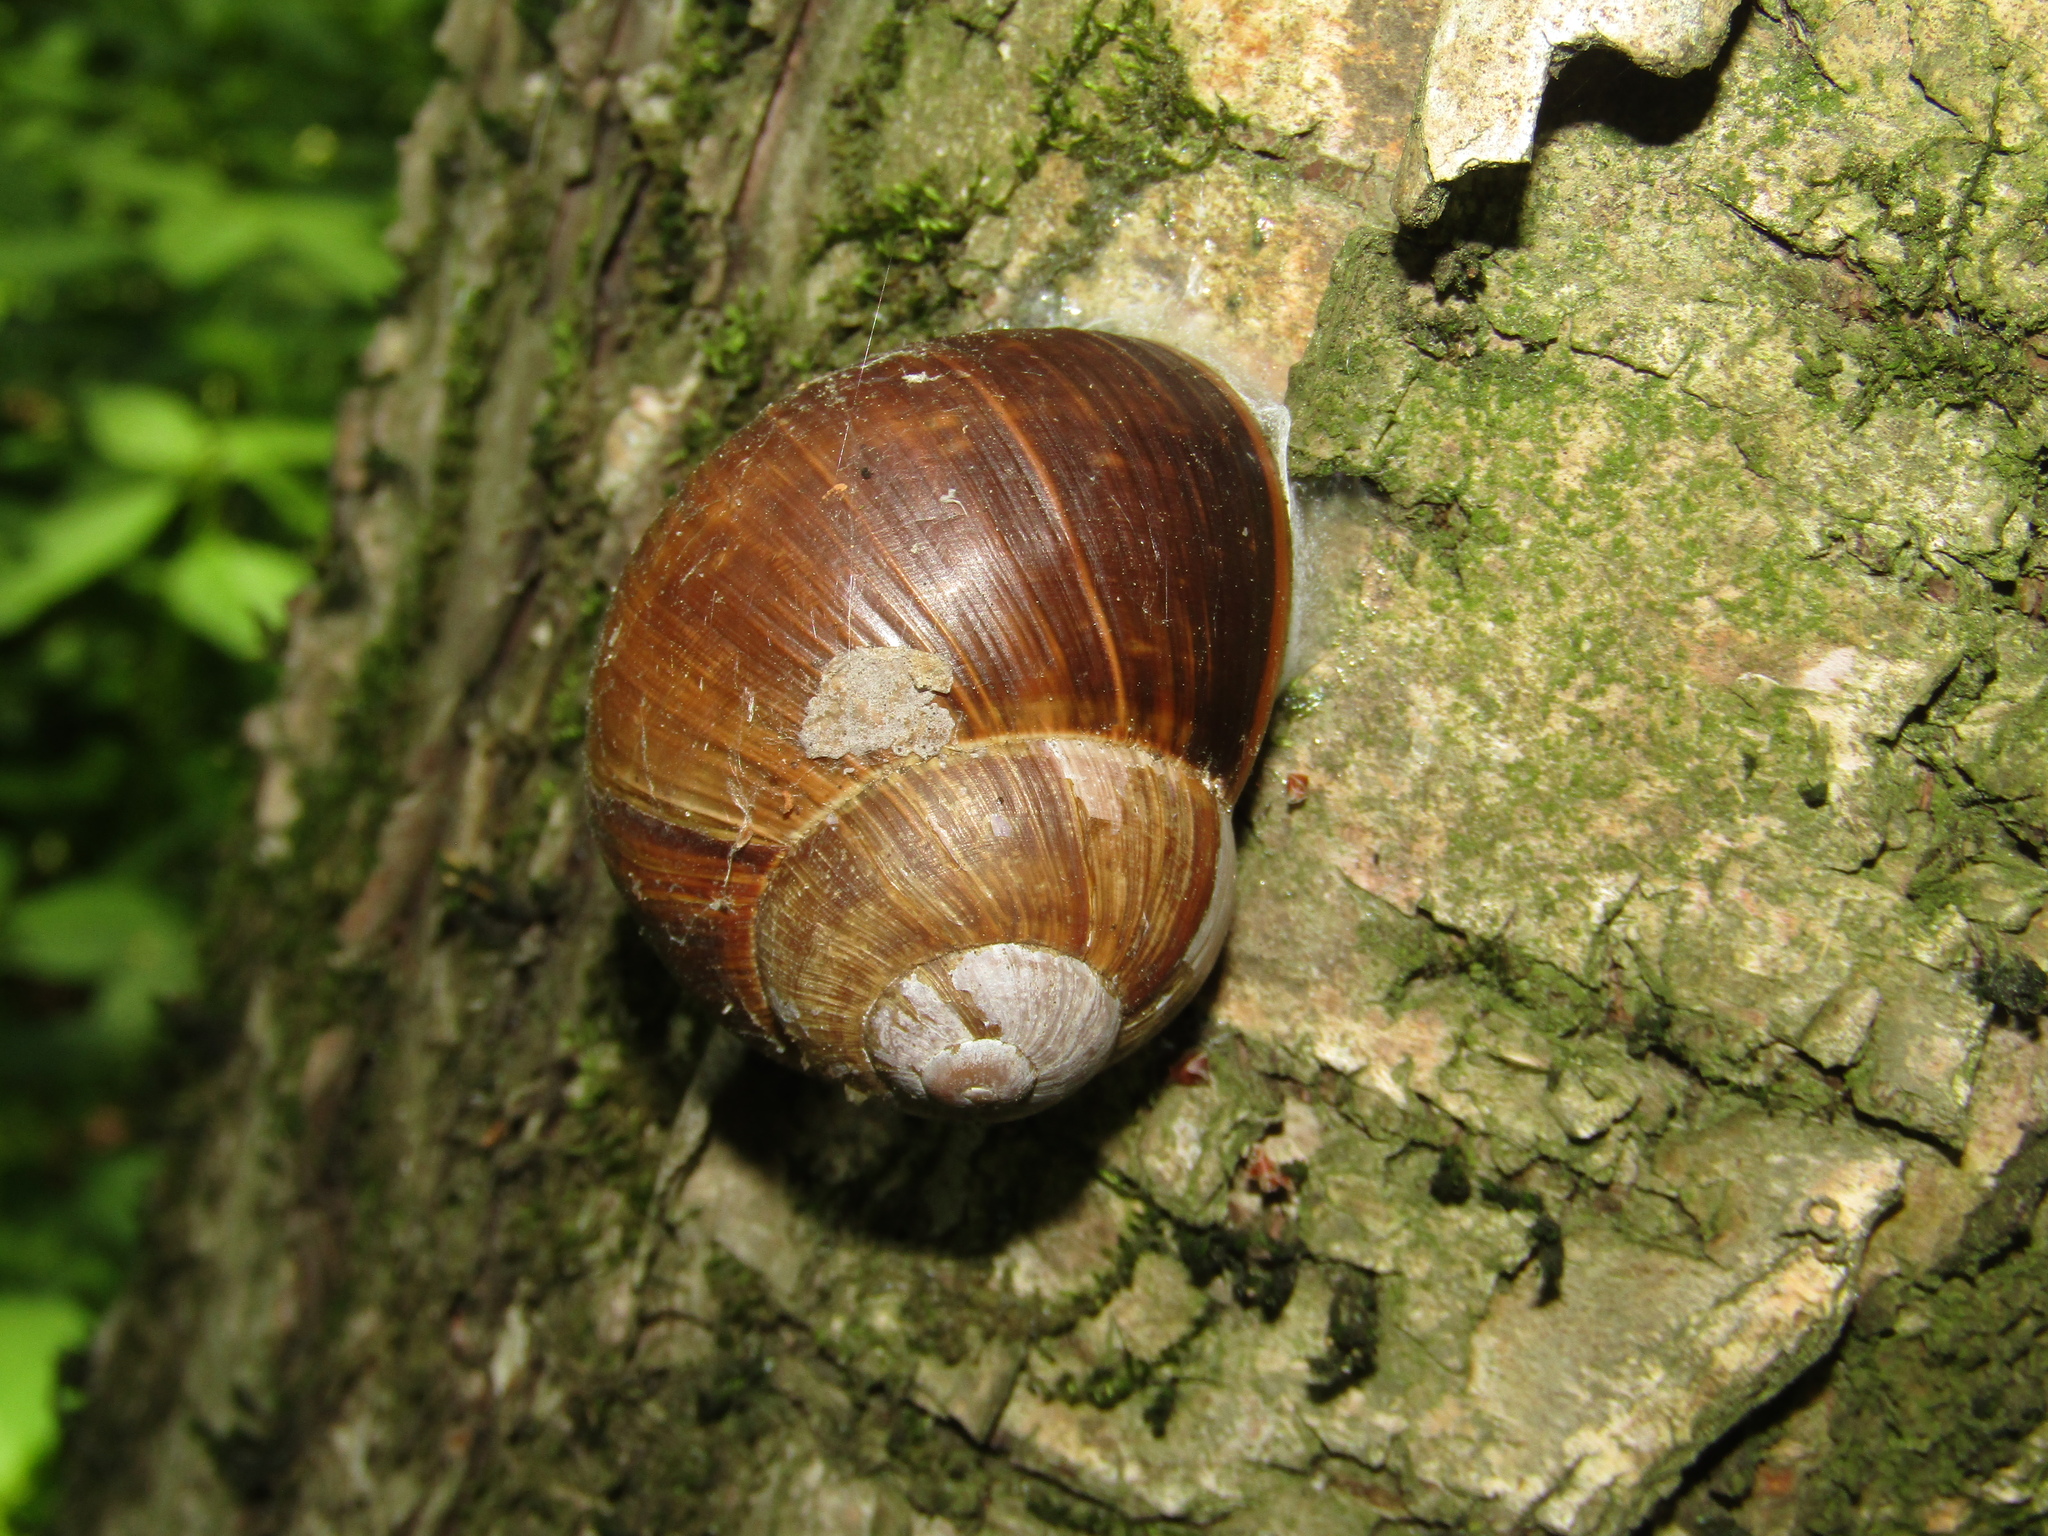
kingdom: Animalia
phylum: Mollusca
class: Gastropoda
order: Stylommatophora
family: Helicidae
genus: Helix
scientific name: Helix pomatia
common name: Roman snail
